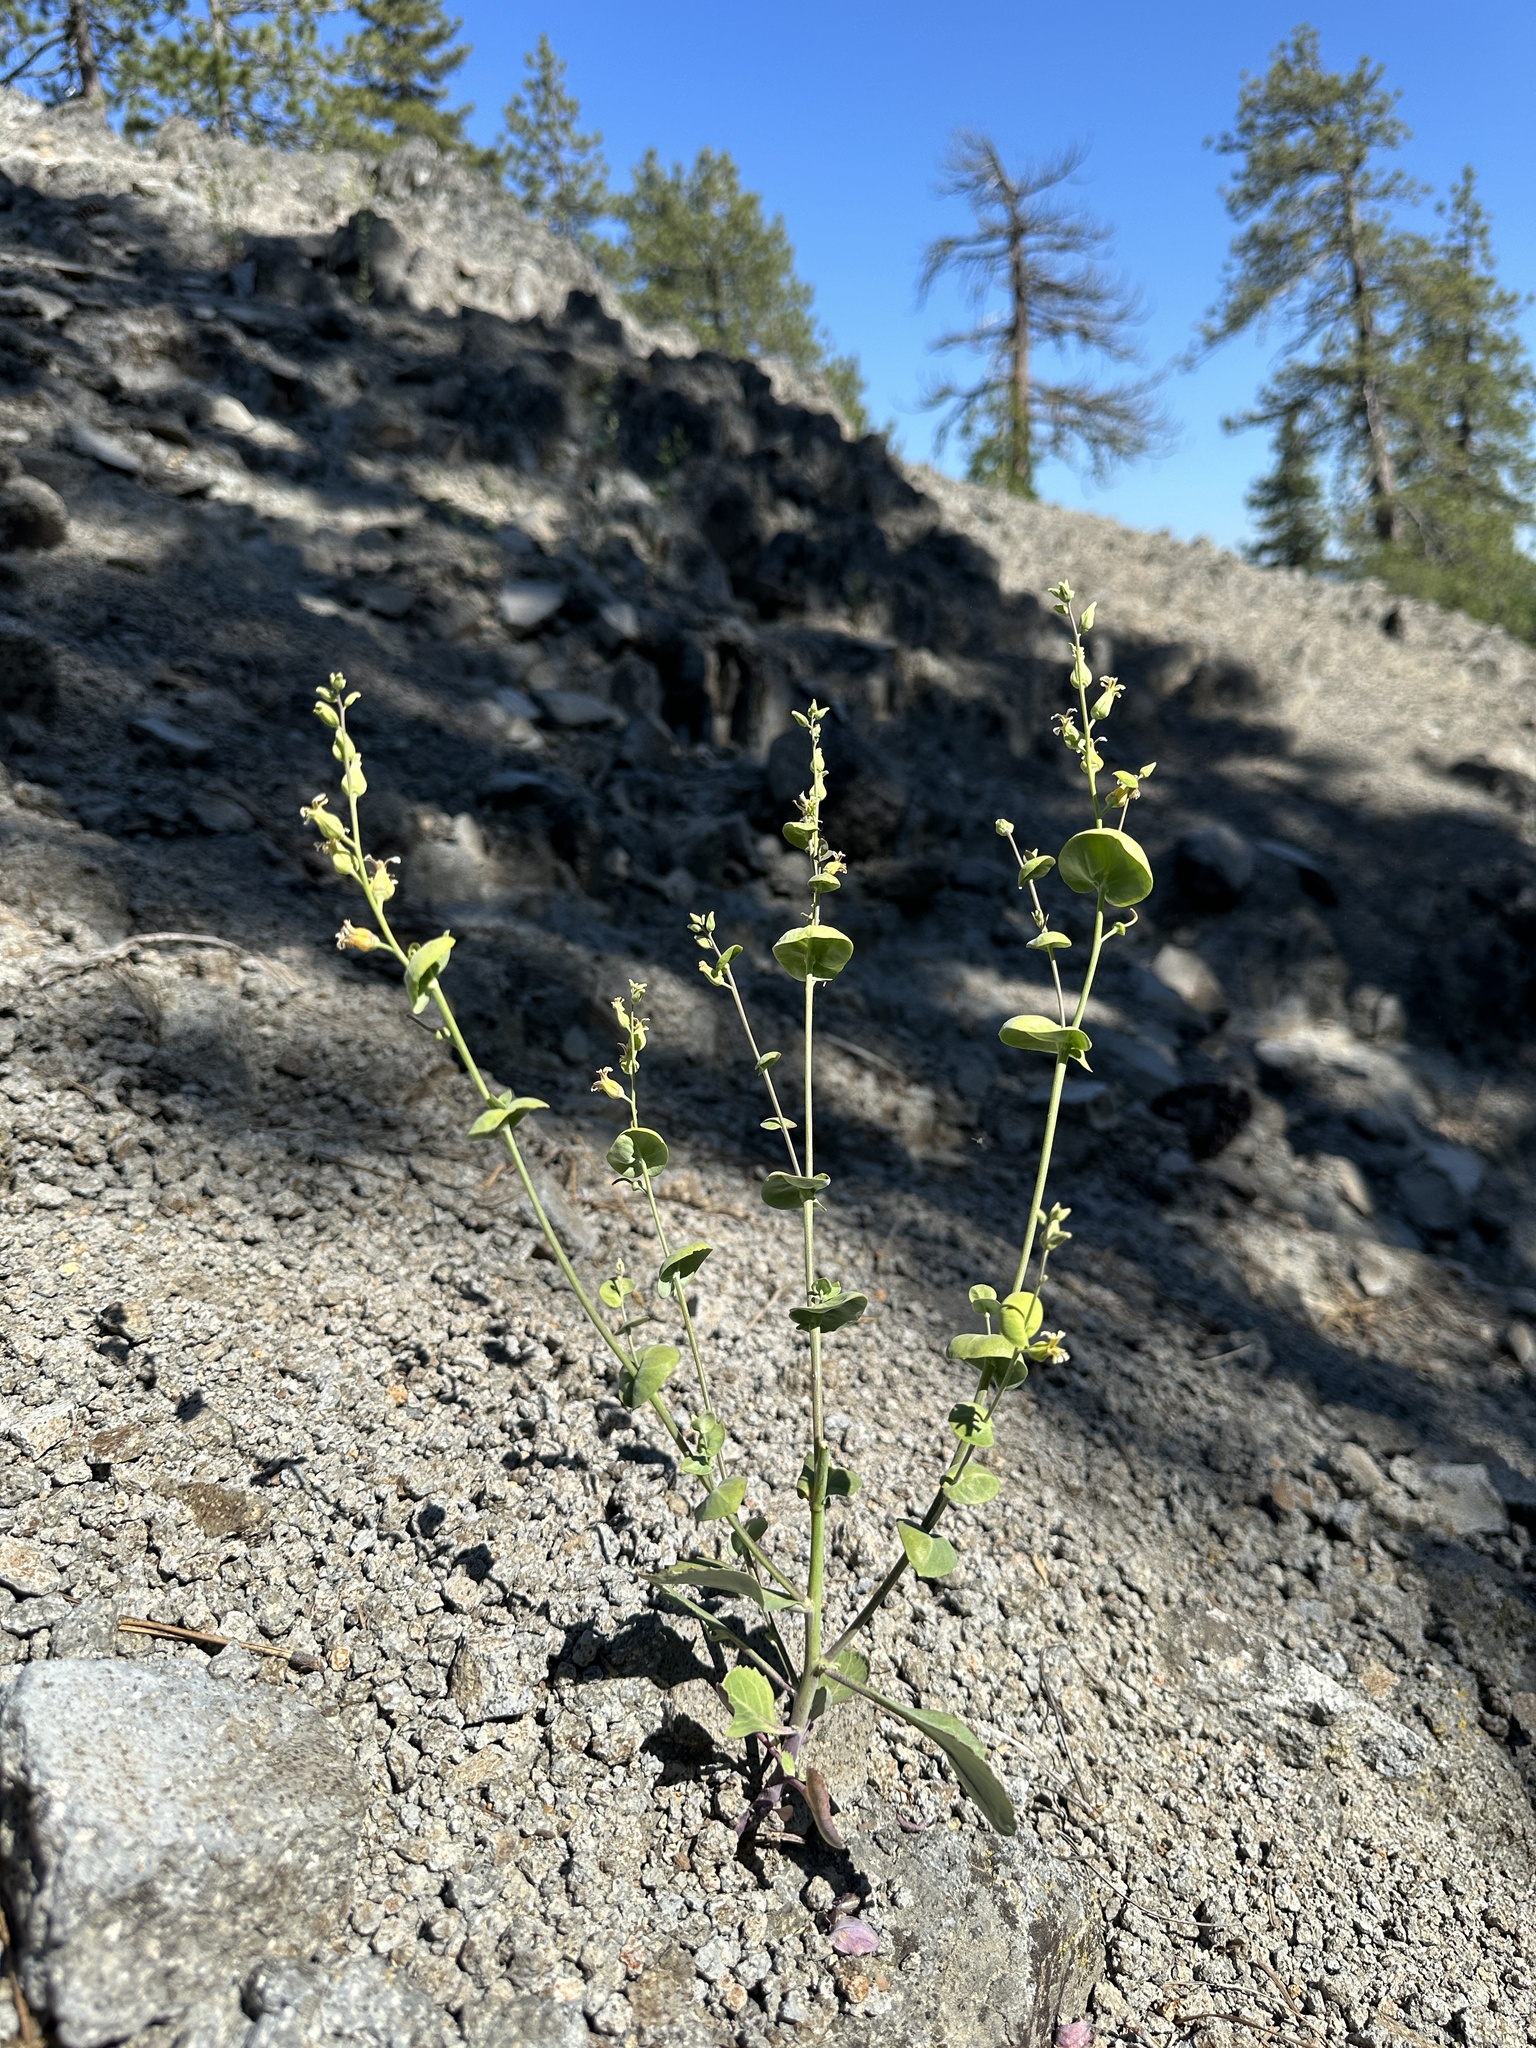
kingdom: Plantae
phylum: Tracheophyta
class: Magnoliopsida
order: Brassicales
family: Brassicaceae
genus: Streptanthus
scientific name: Streptanthus tortuosus
